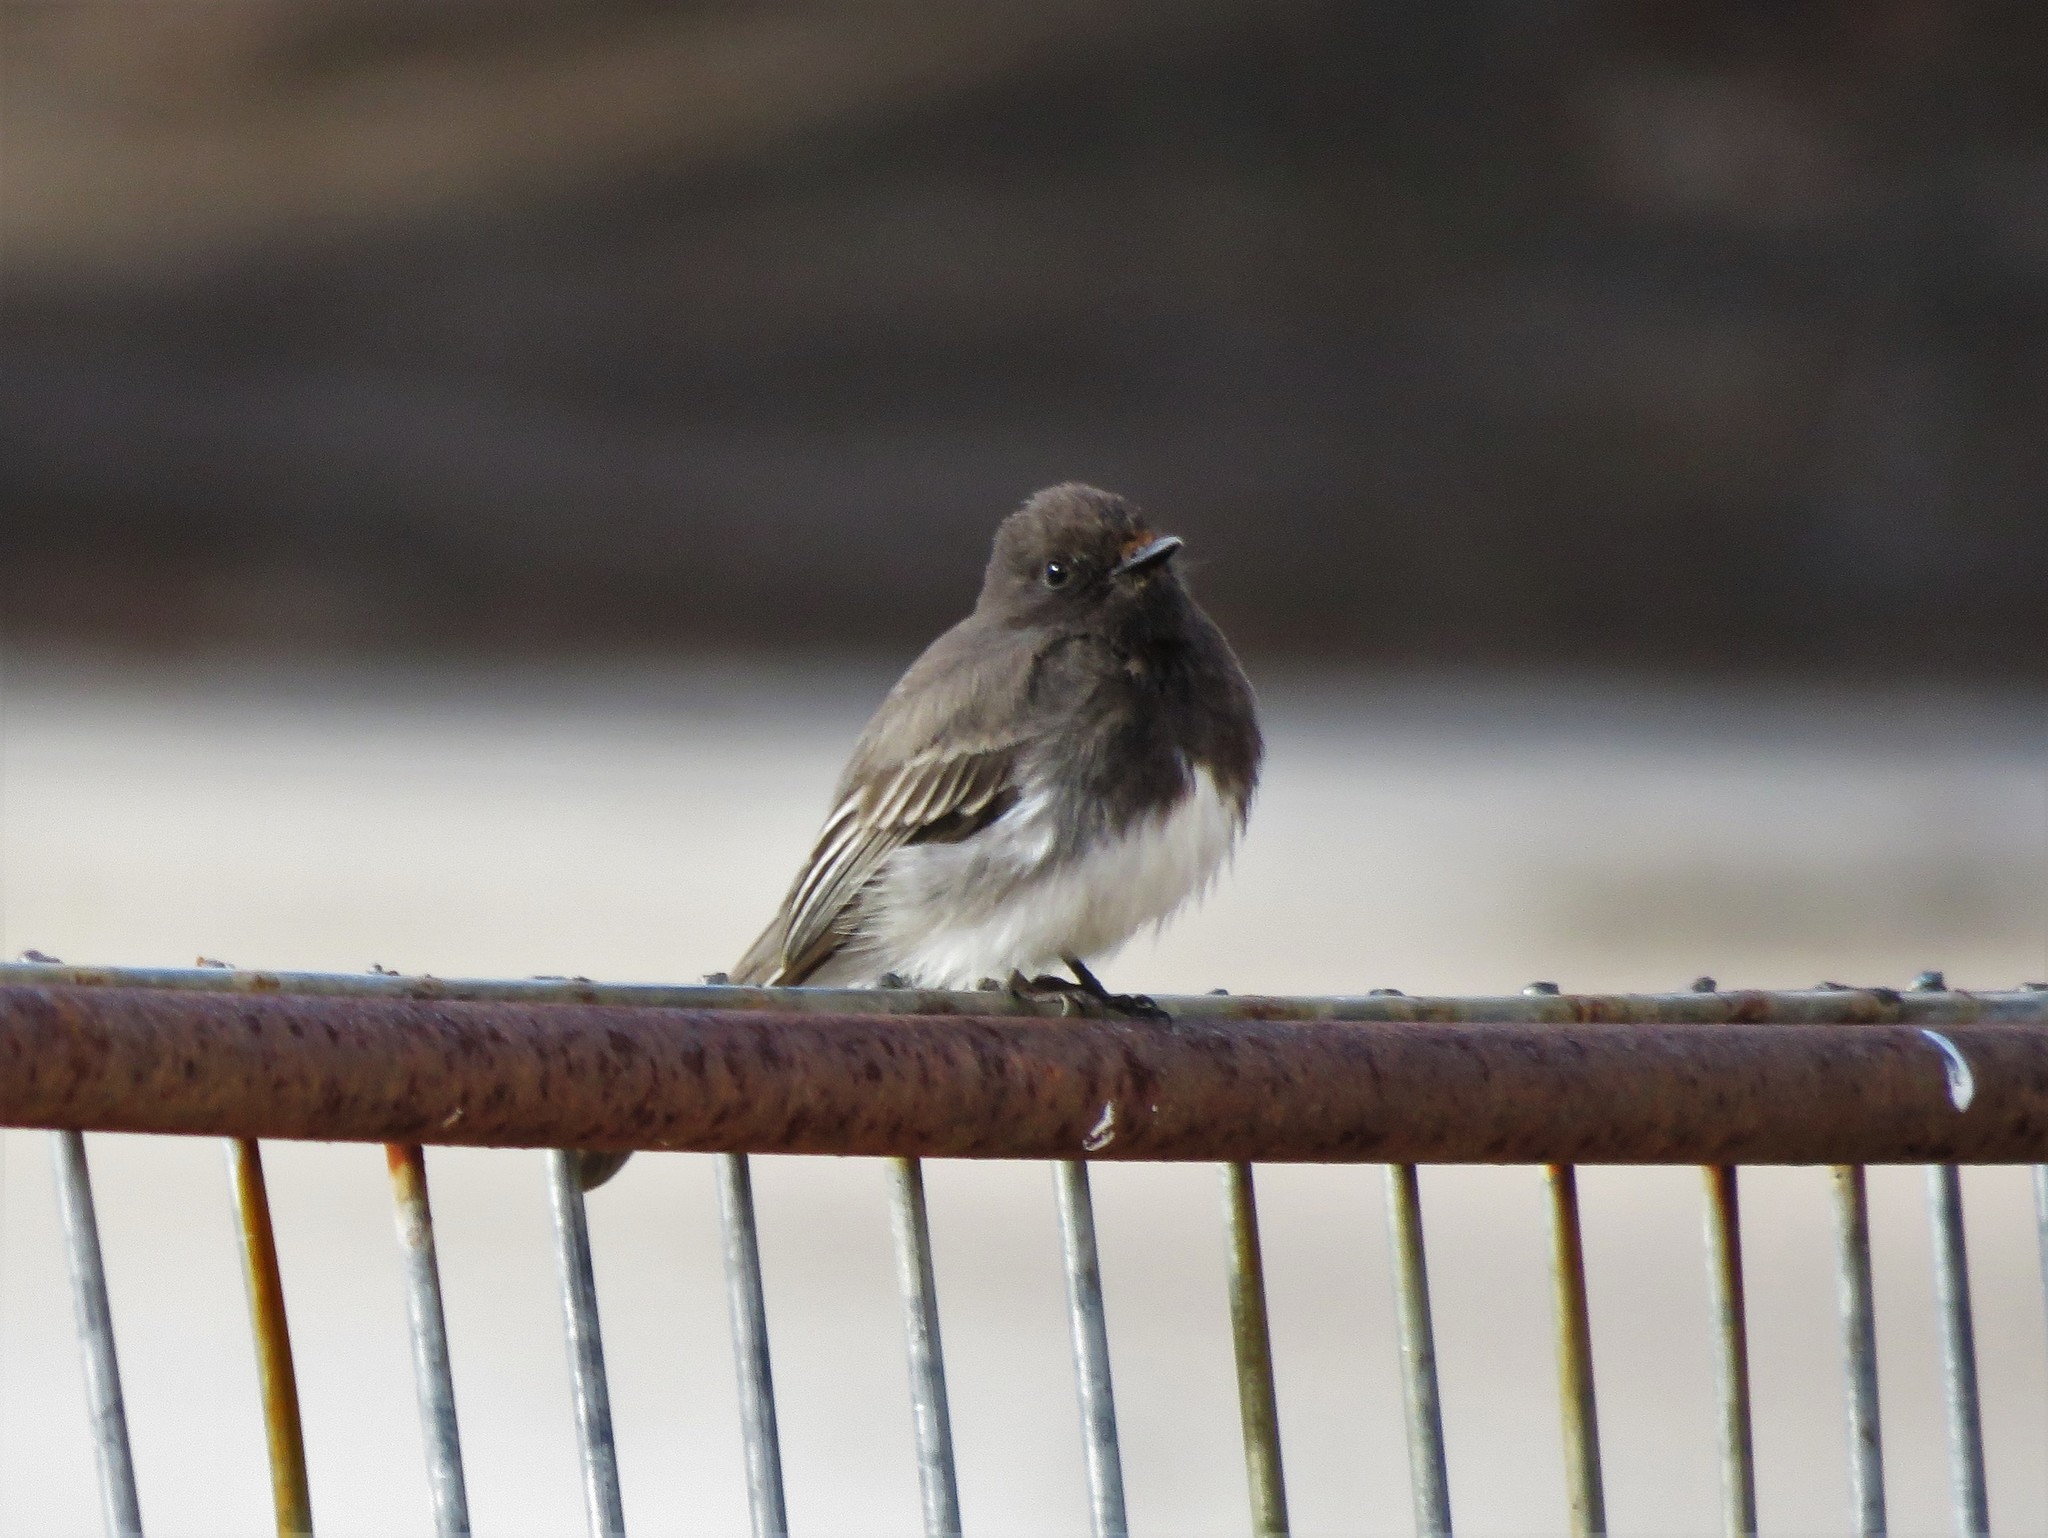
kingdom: Animalia
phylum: Chordata
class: Aves
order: Passeriformes
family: Tyrannidae
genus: Sayornis
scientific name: Sayornis nigricans
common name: Black phoebe
